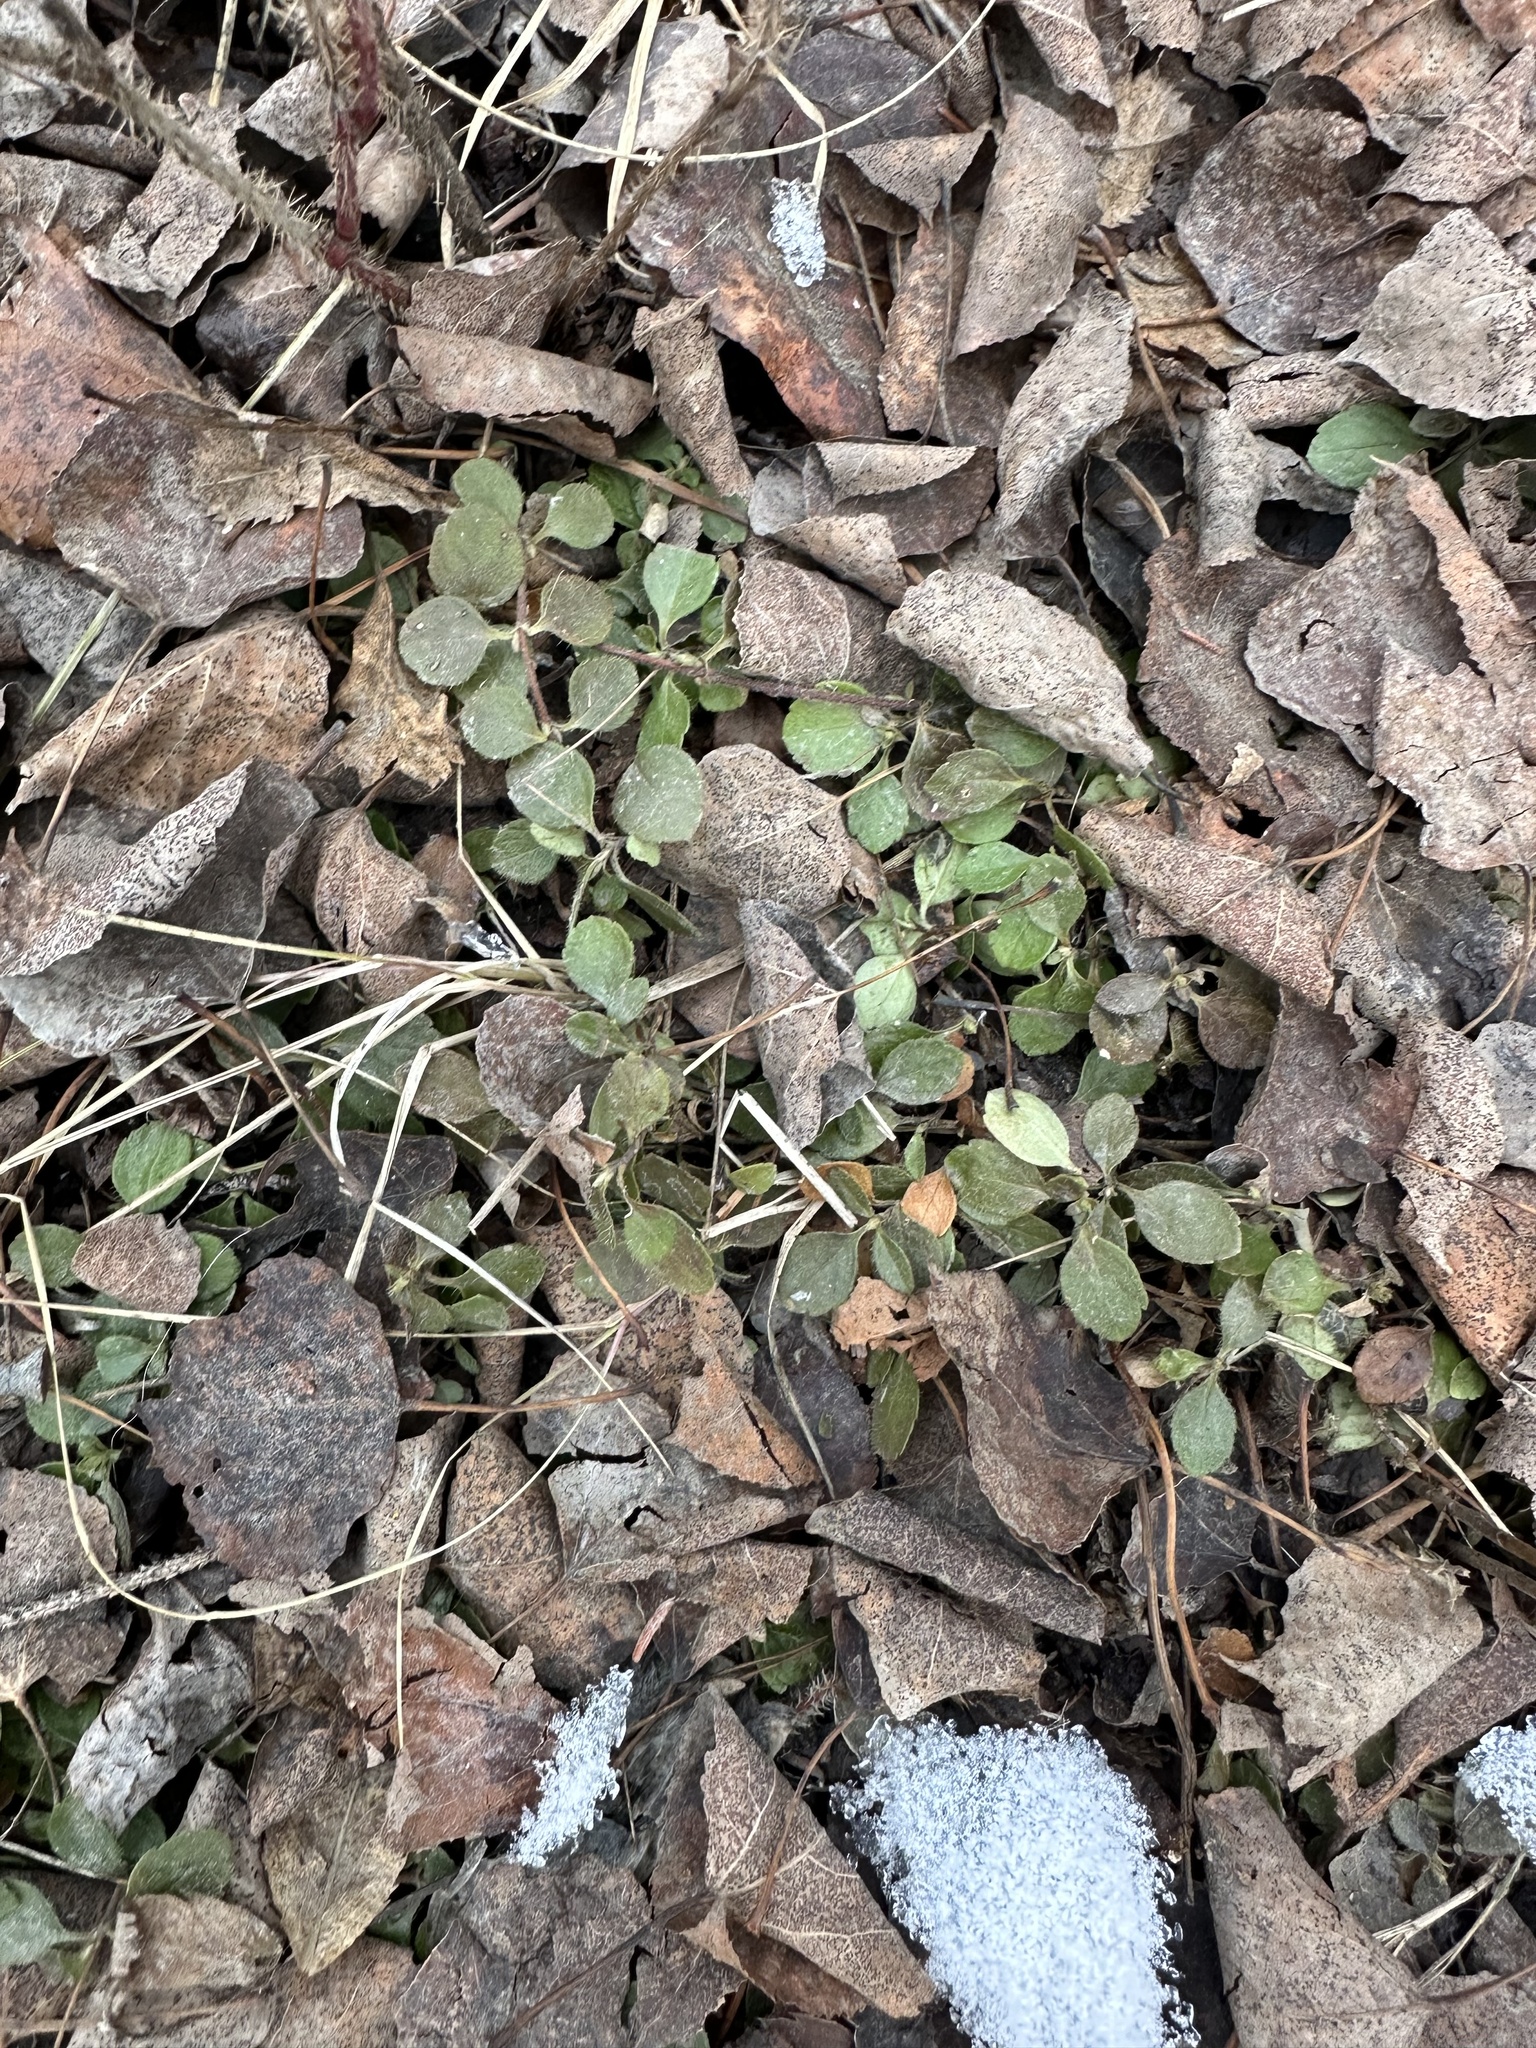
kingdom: Plantae
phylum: Tracheophyta
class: Magnoliopsida
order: Dipsacales
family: Caprifoliaceae
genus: Linnaea
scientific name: Linnaea borealis
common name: Twinflower
